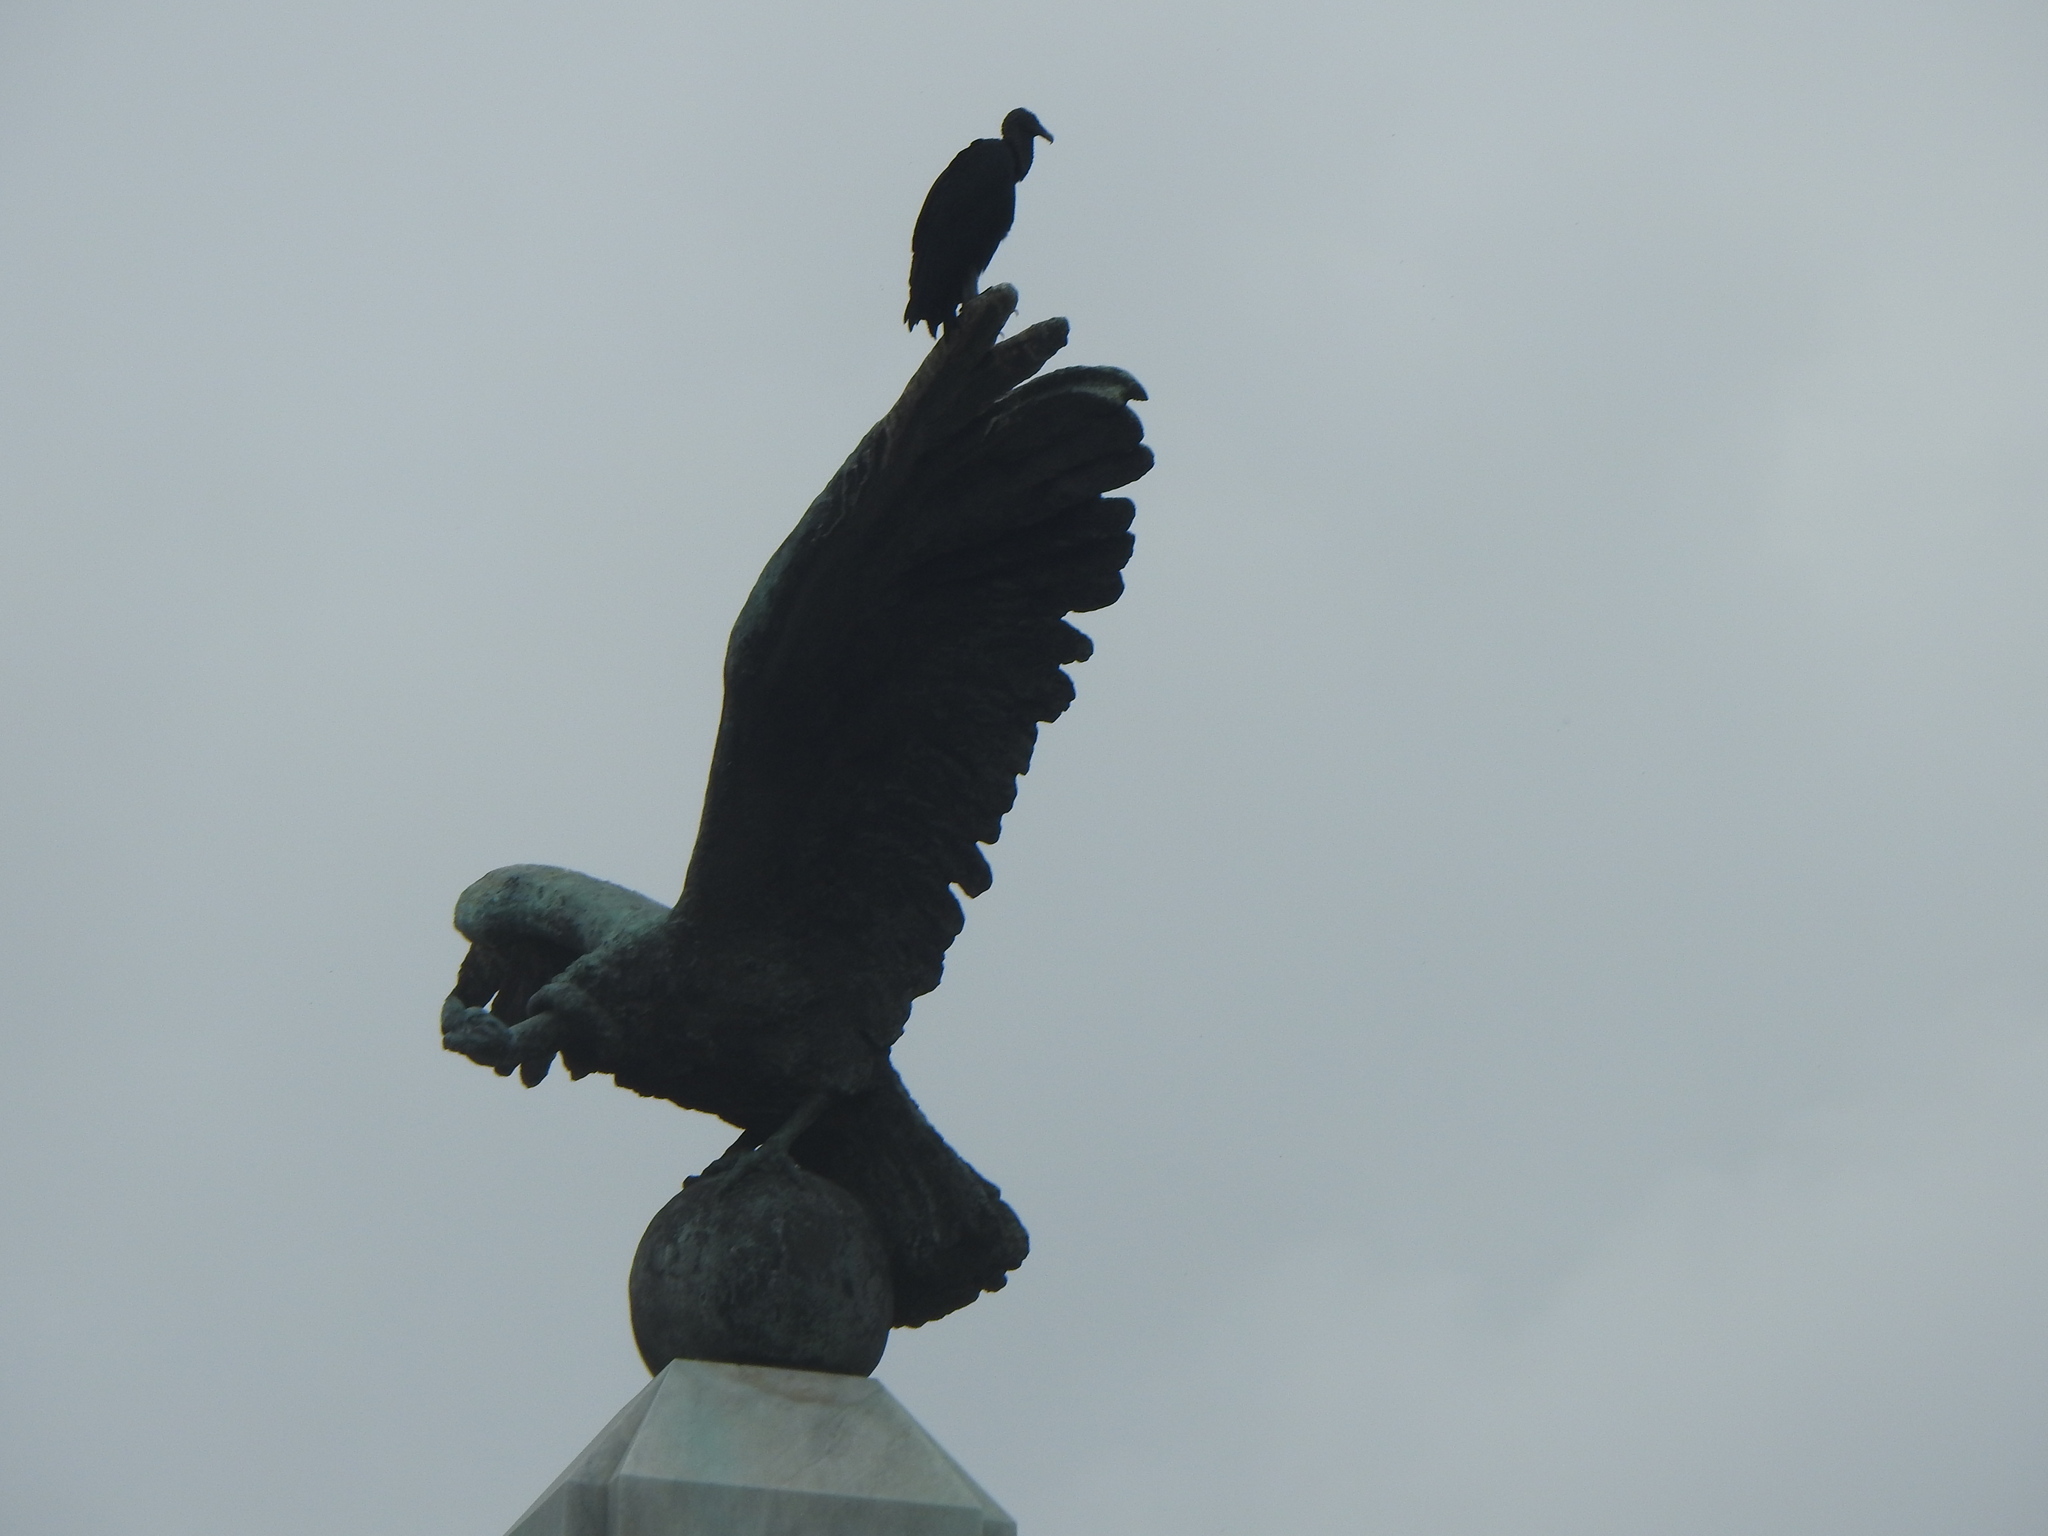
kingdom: Animalia
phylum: Chordata
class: Aves
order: Accipitriformes
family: Cathartidae
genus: Coragyps
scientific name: Coragyps atratus
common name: Black vulture
